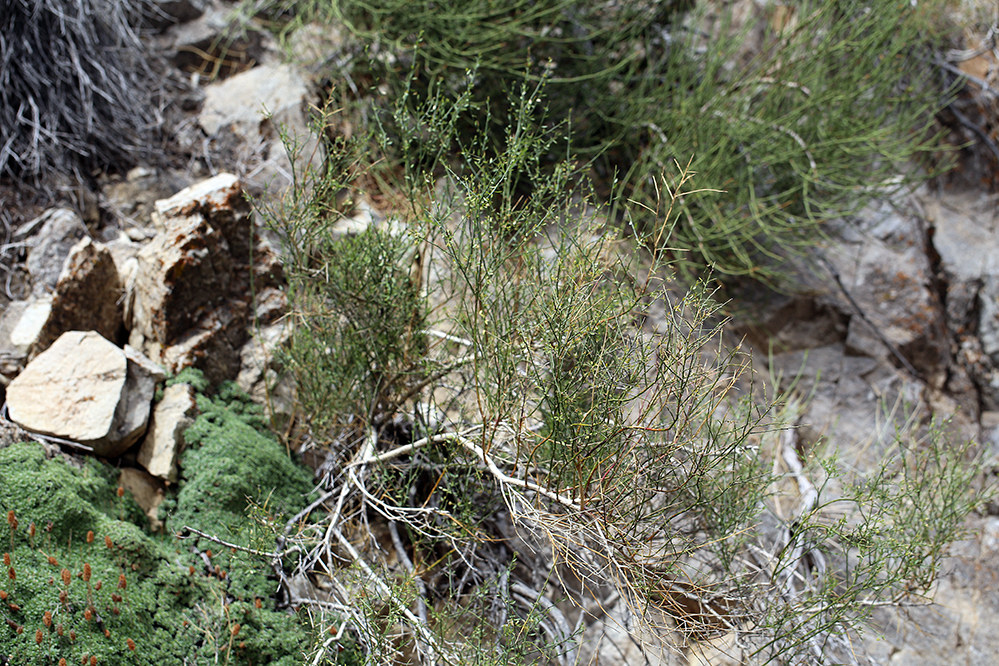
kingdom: Plantae
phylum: Tracheophyta
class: Magnoliopsida
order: Crossosomatales
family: Crossosomataceae
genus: Glossopetalon
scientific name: Glossopetalon spinescens
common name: Spring greasebush
